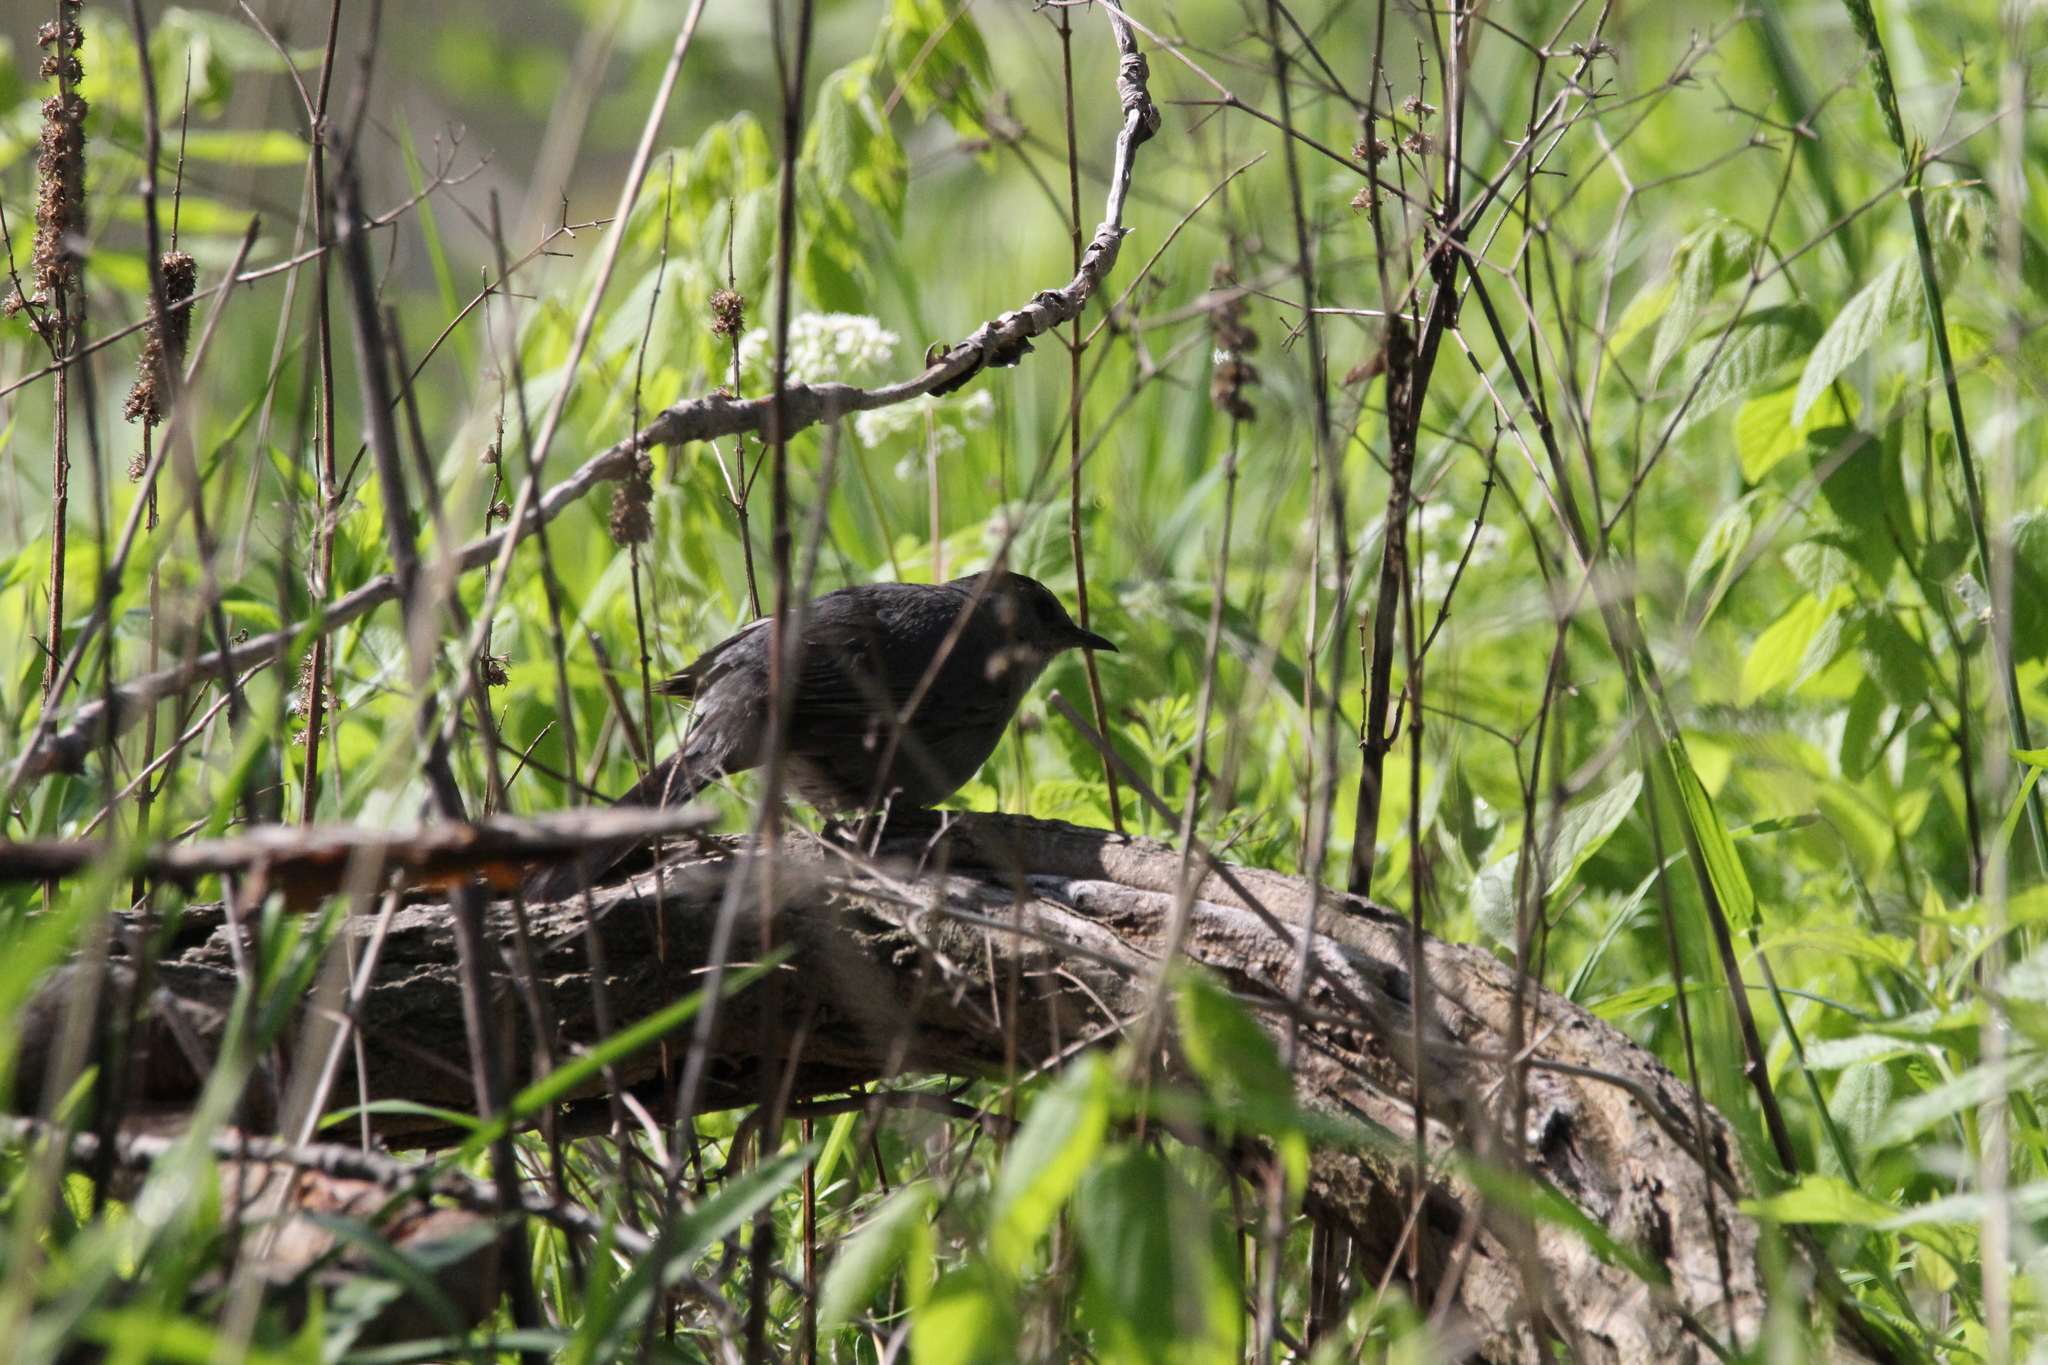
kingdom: Animalia
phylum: Chordata
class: Aves
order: Passeriformes
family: Mimidae
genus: Dumetella
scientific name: Dumetella carolinensis
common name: Gray catbird
